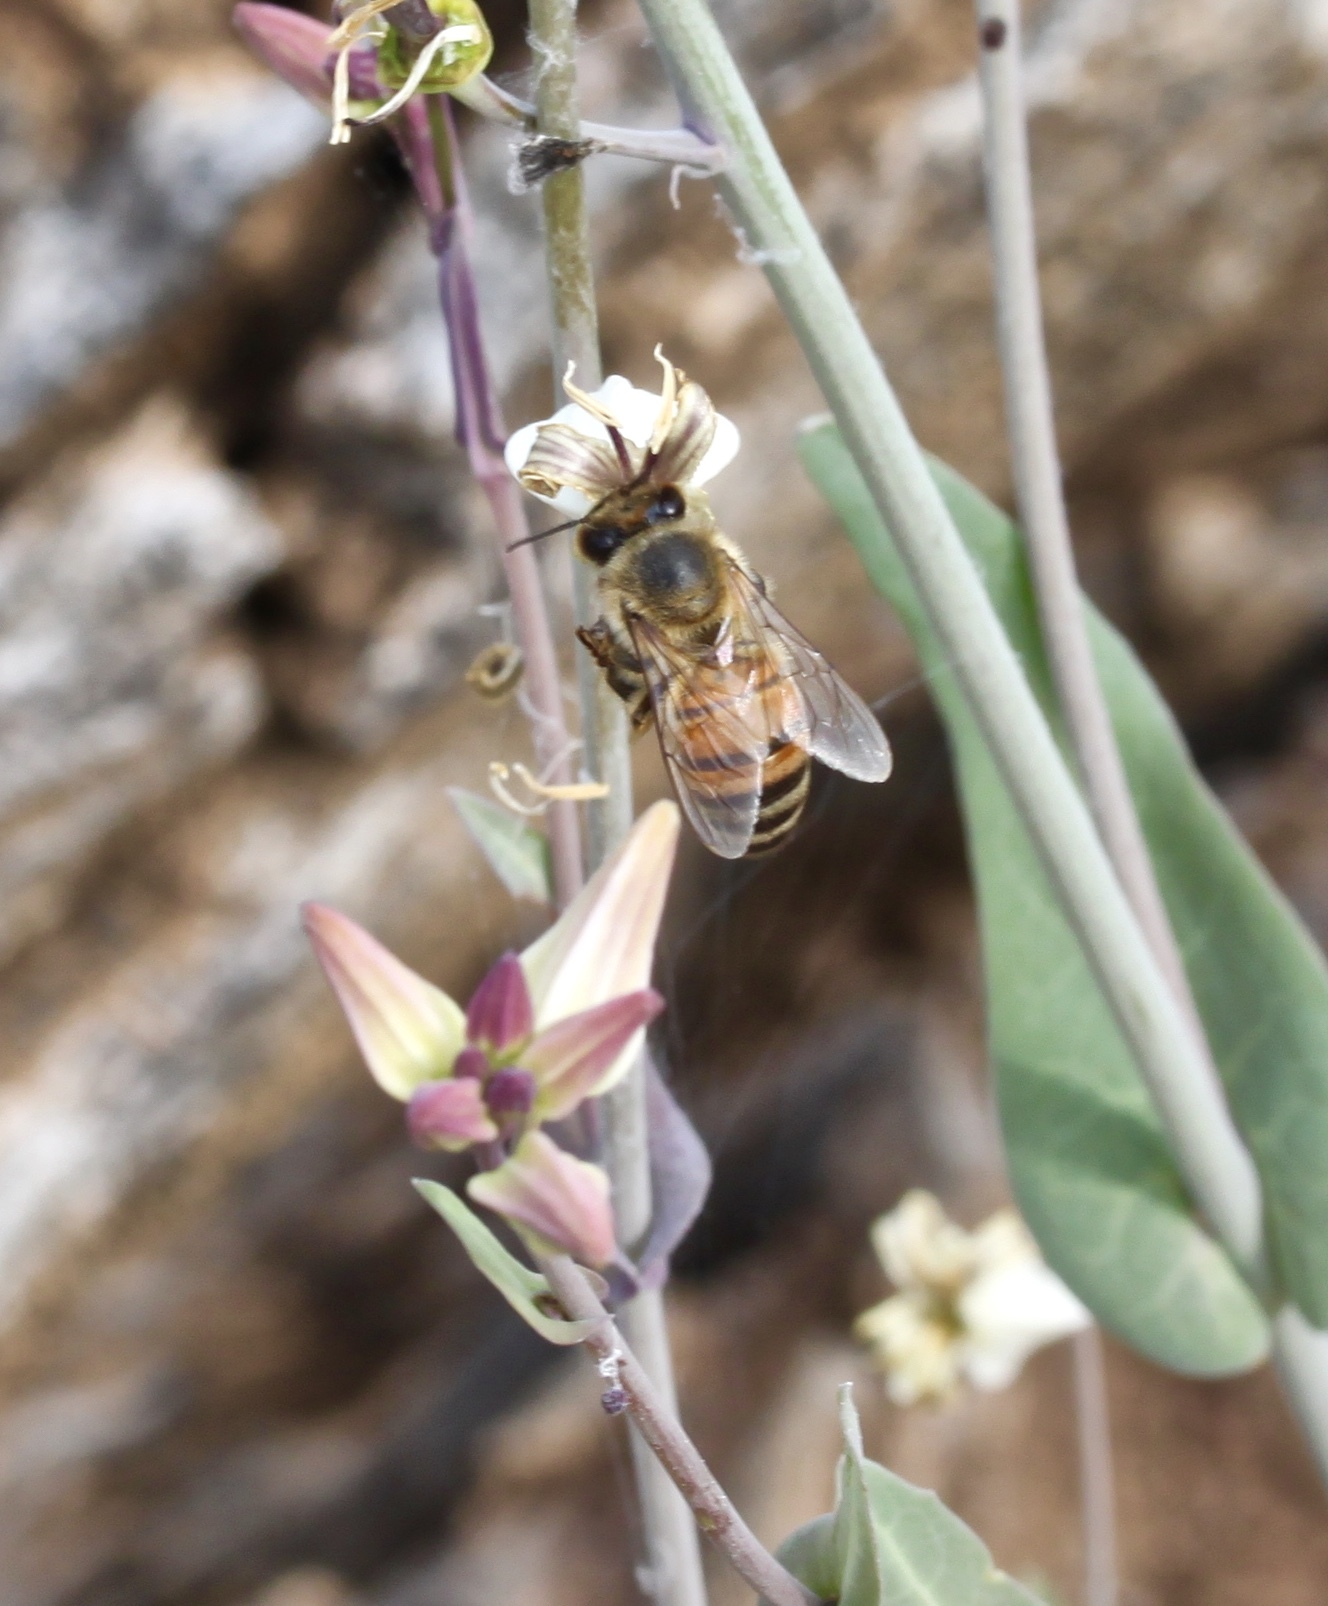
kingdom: Animalia
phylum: Arthropoda
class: Insecta
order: Hymenoptera
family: Apidae
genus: Apis
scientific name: Apis mellifera
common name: Honey bee
